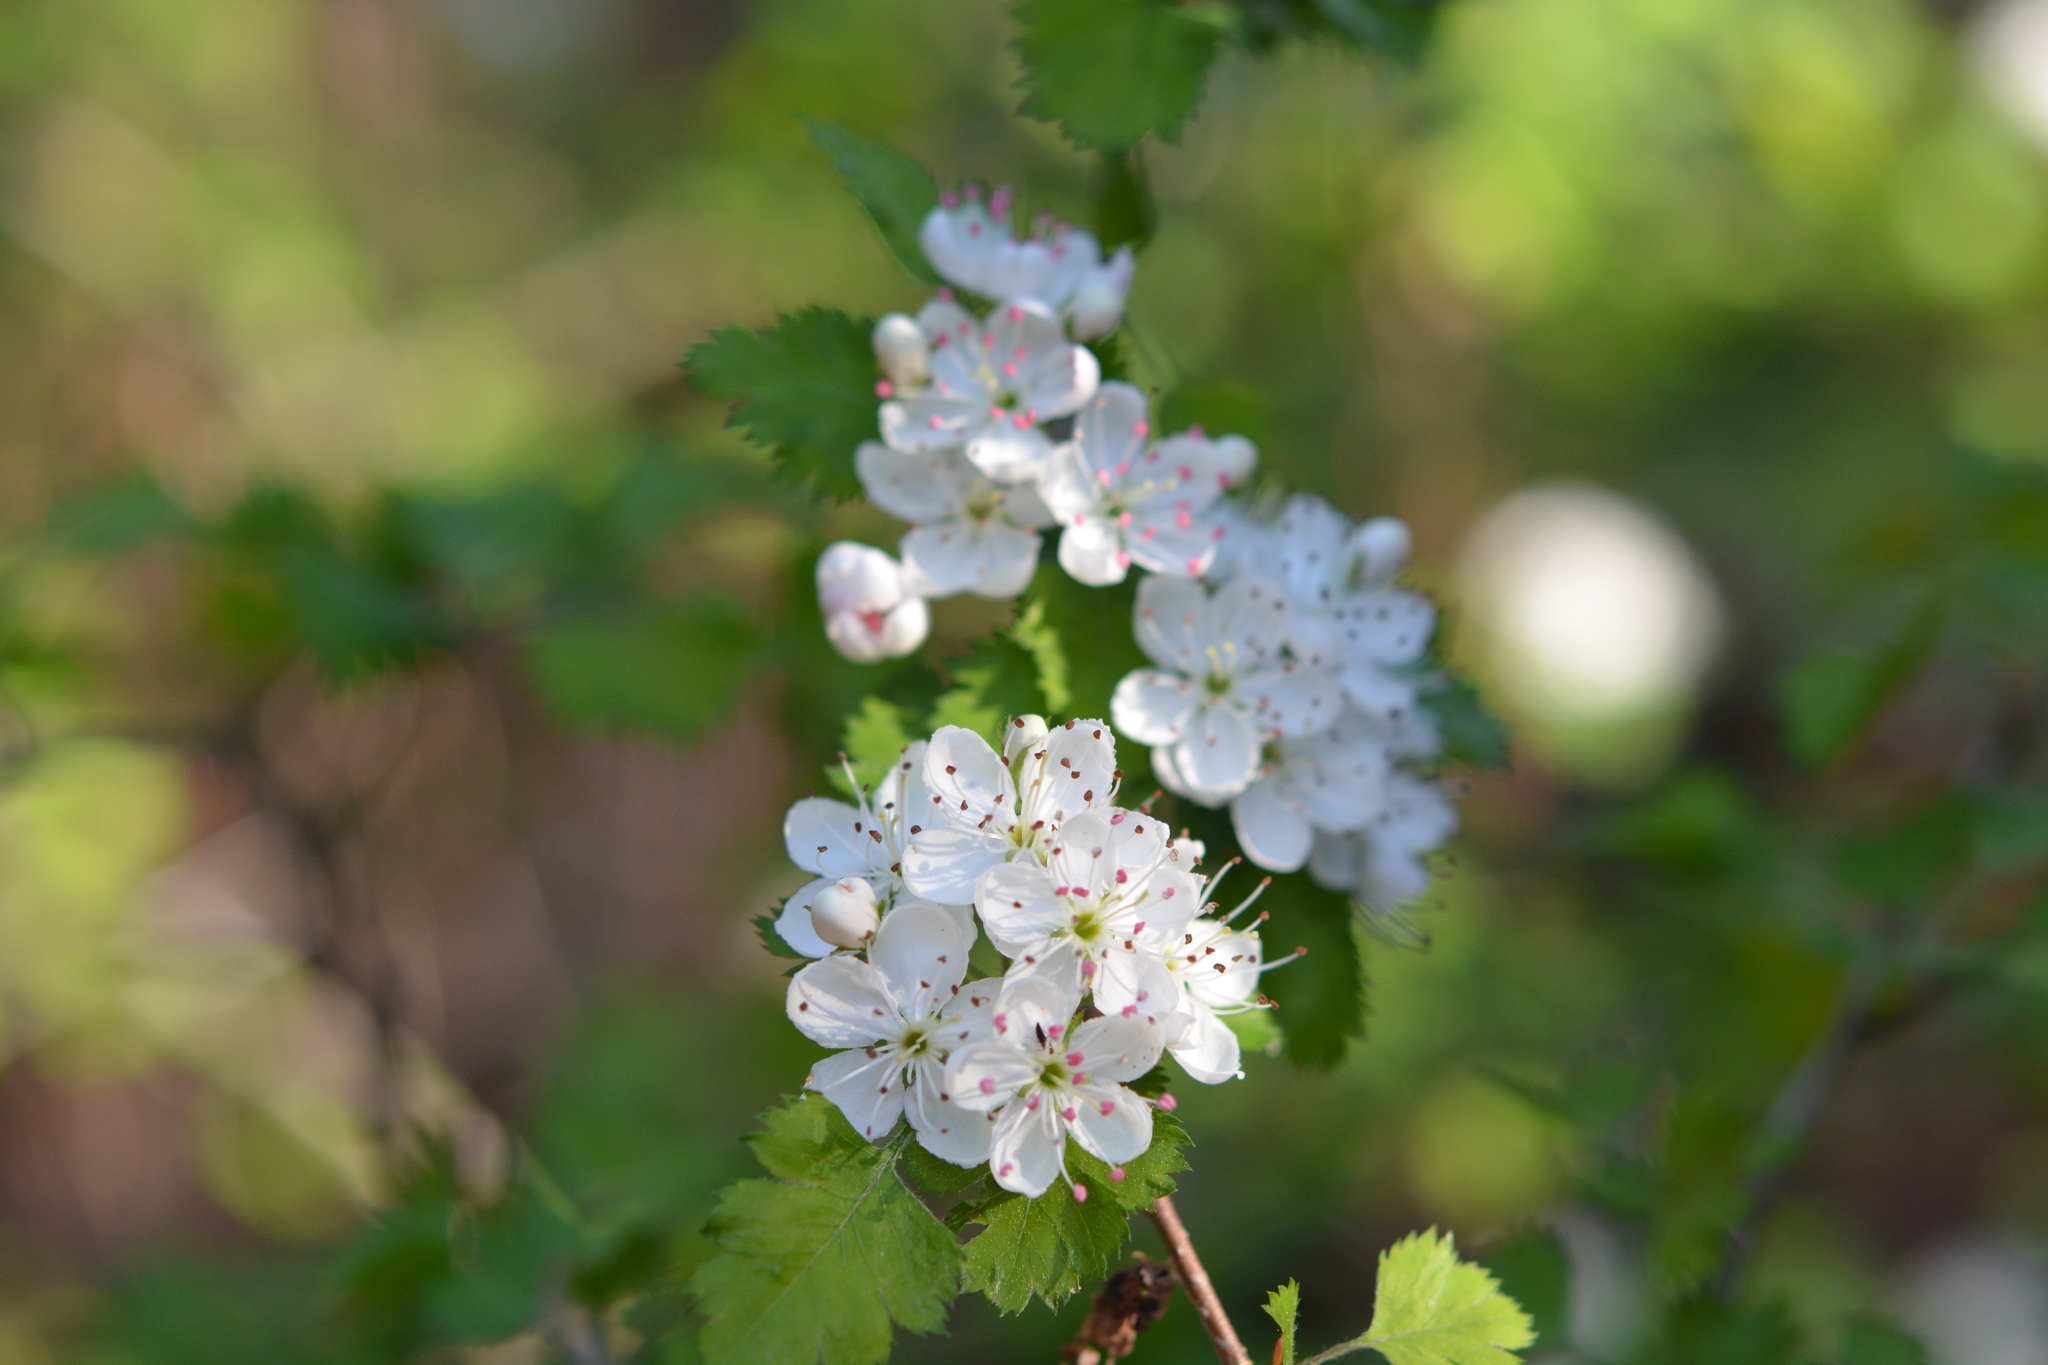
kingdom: Plantae
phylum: Tracheophyta
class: Magnoliopsida
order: Rosales
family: Rosaceae
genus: Crataegus
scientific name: Crataegus marshallii
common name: Parsley-hawthorn
